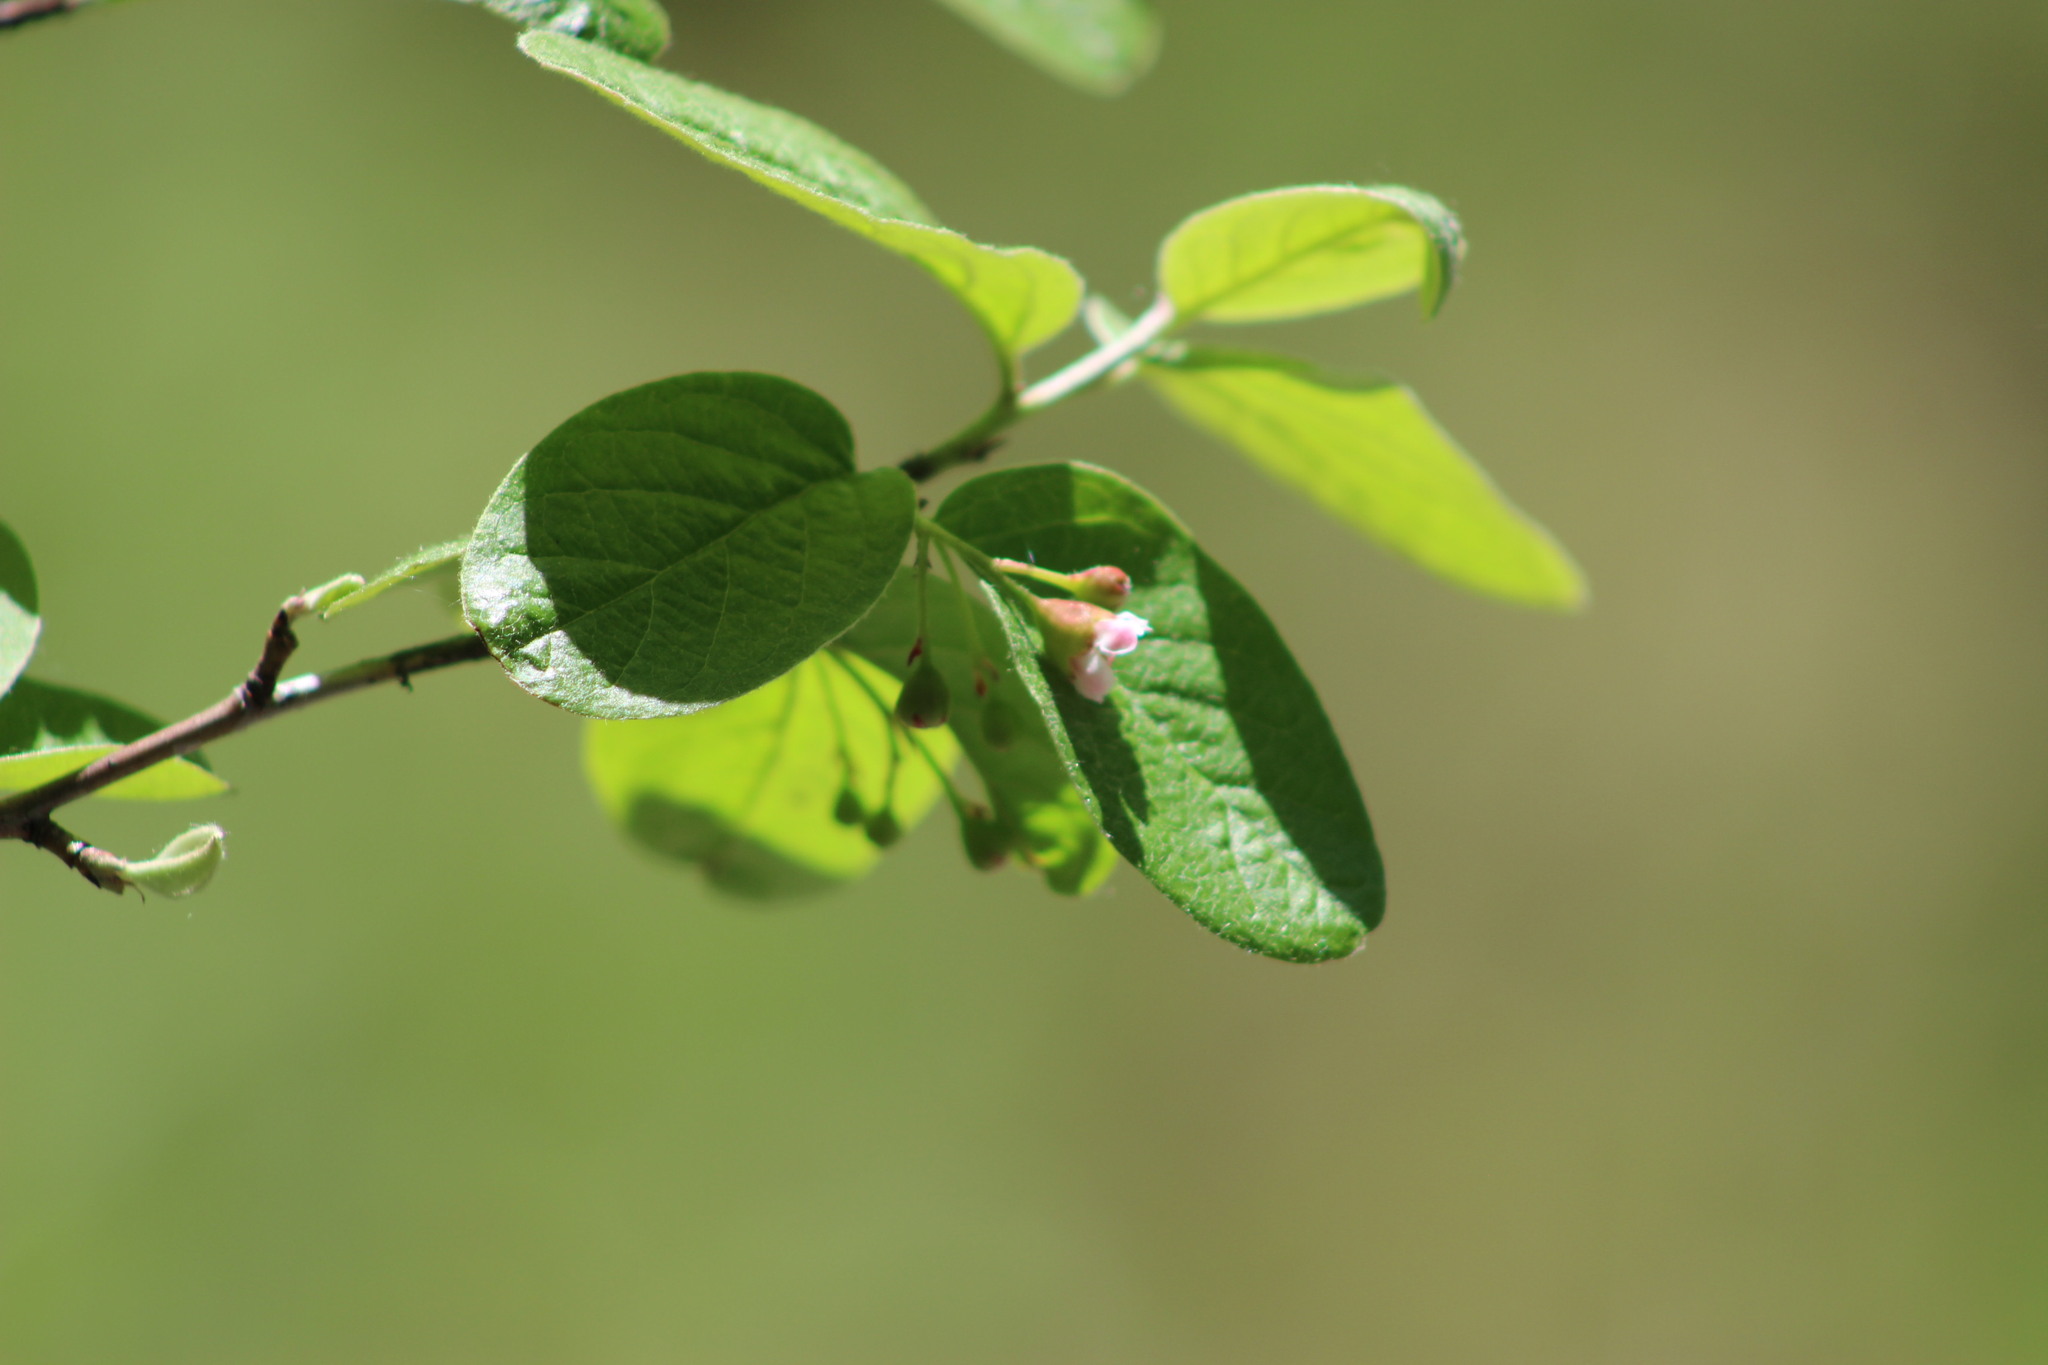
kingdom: Plantae
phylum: Tracheophyta
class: Magnoliopsida
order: Rosales
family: Rosaceae
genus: Cotoneaster
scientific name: Cotoneaster melanocarpus
